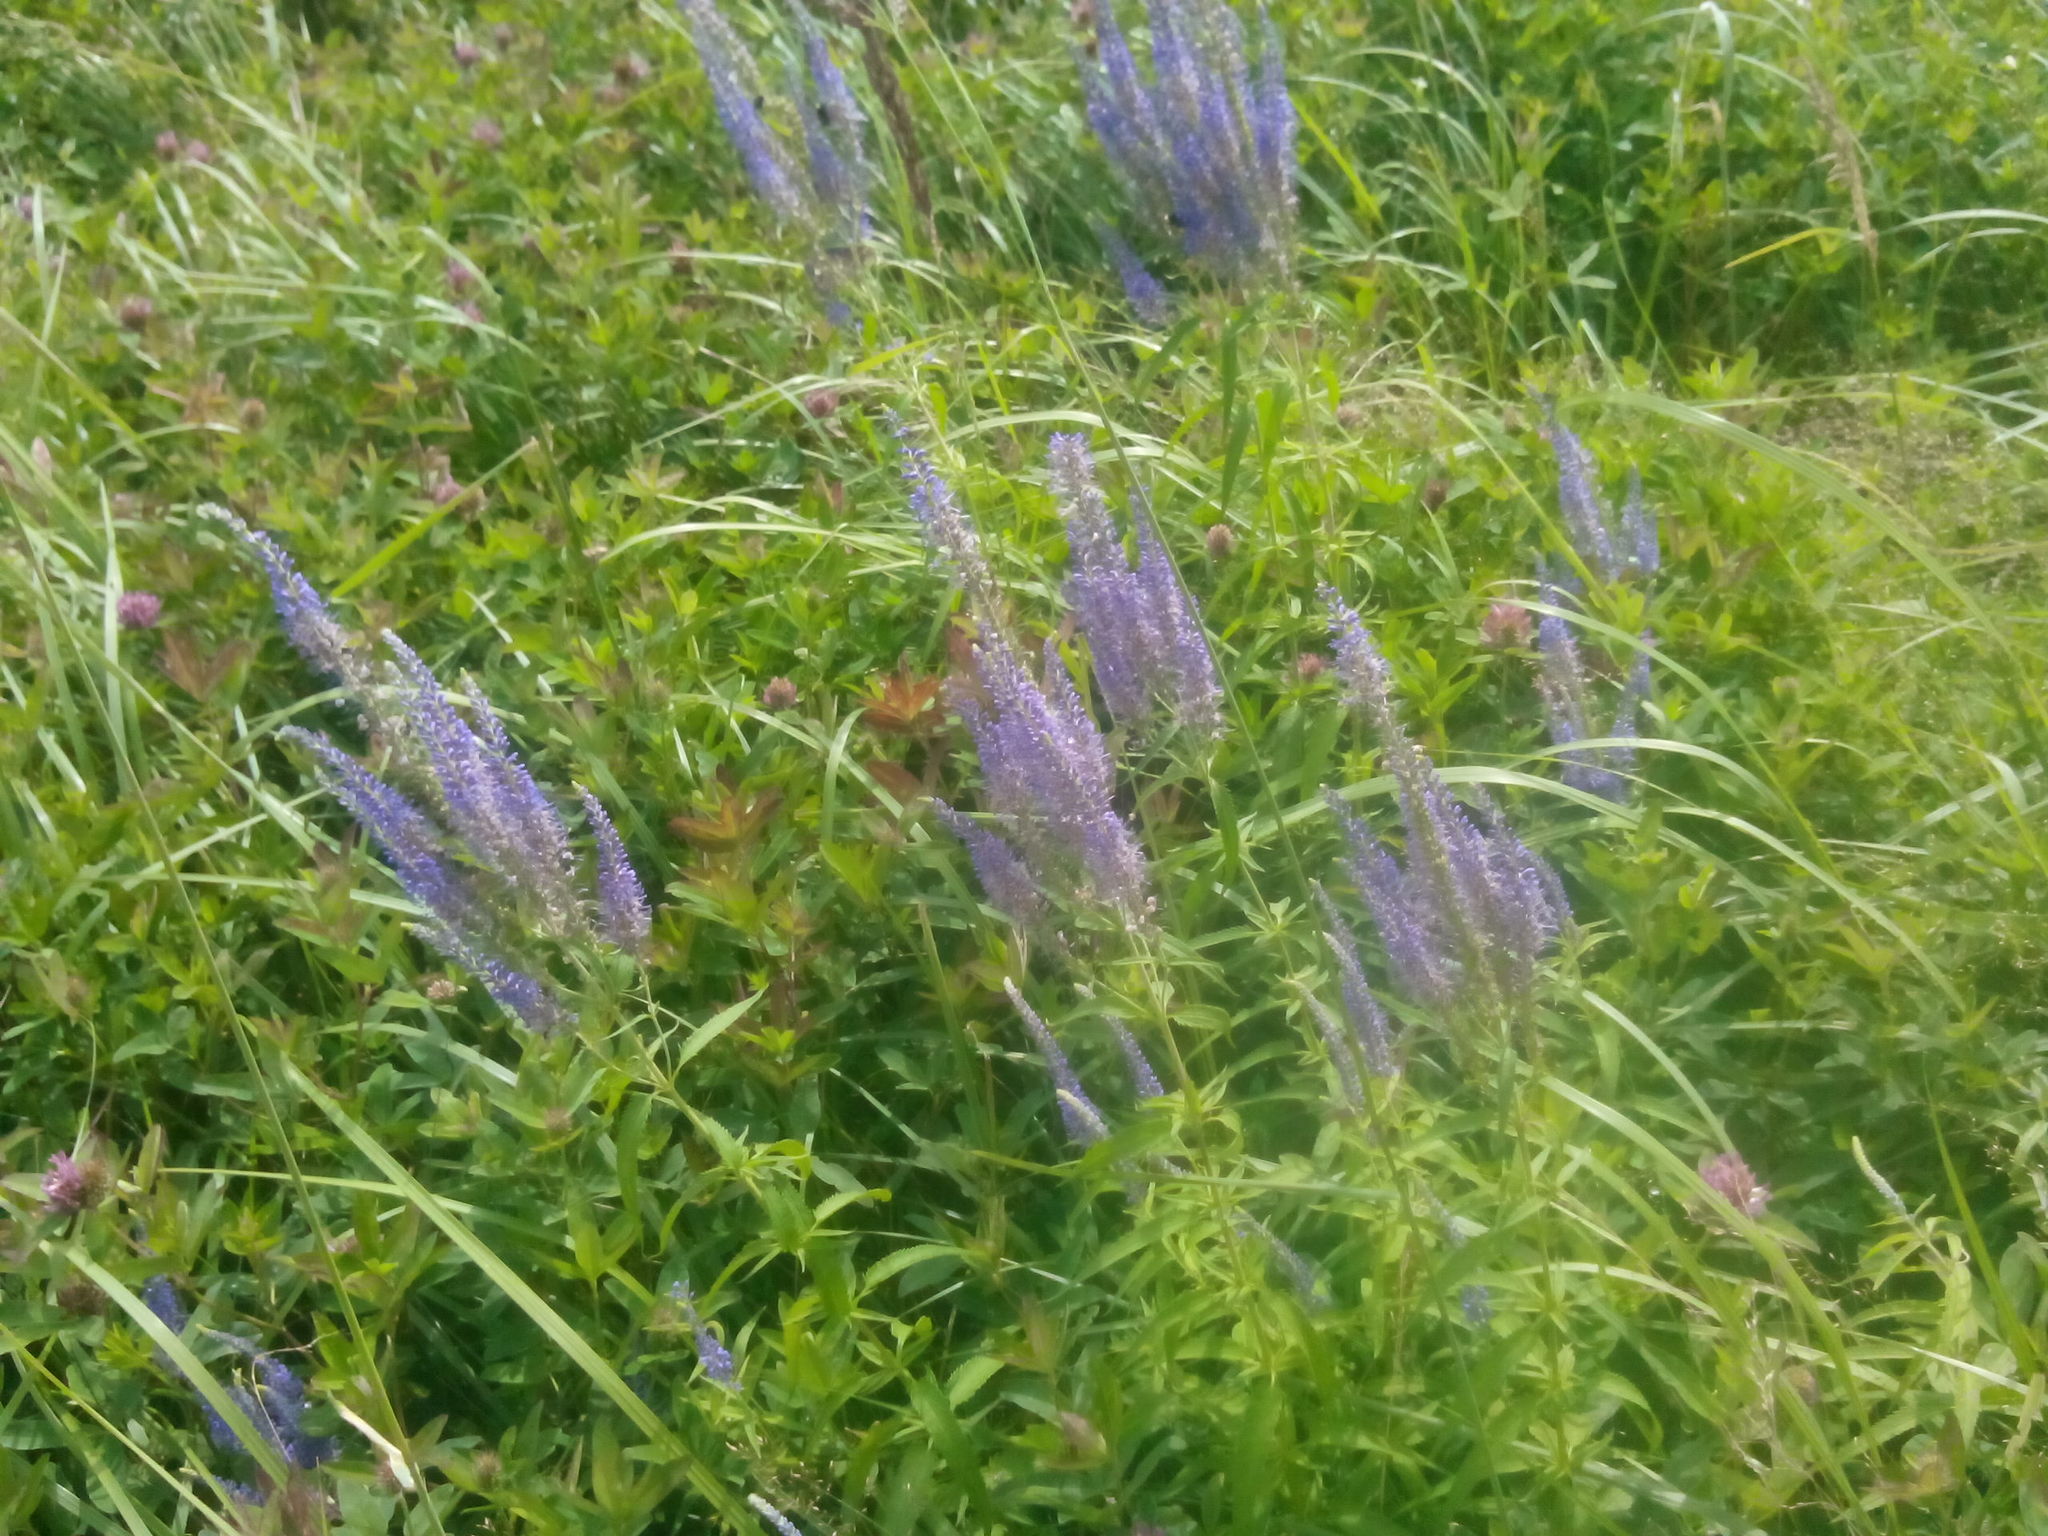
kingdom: Plantae
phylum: Tracheophyta
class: Magnoliopsida
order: Lamiales
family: Plantaginaceae
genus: Veronica
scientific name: Veronica longifolia
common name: Garden speedwell
